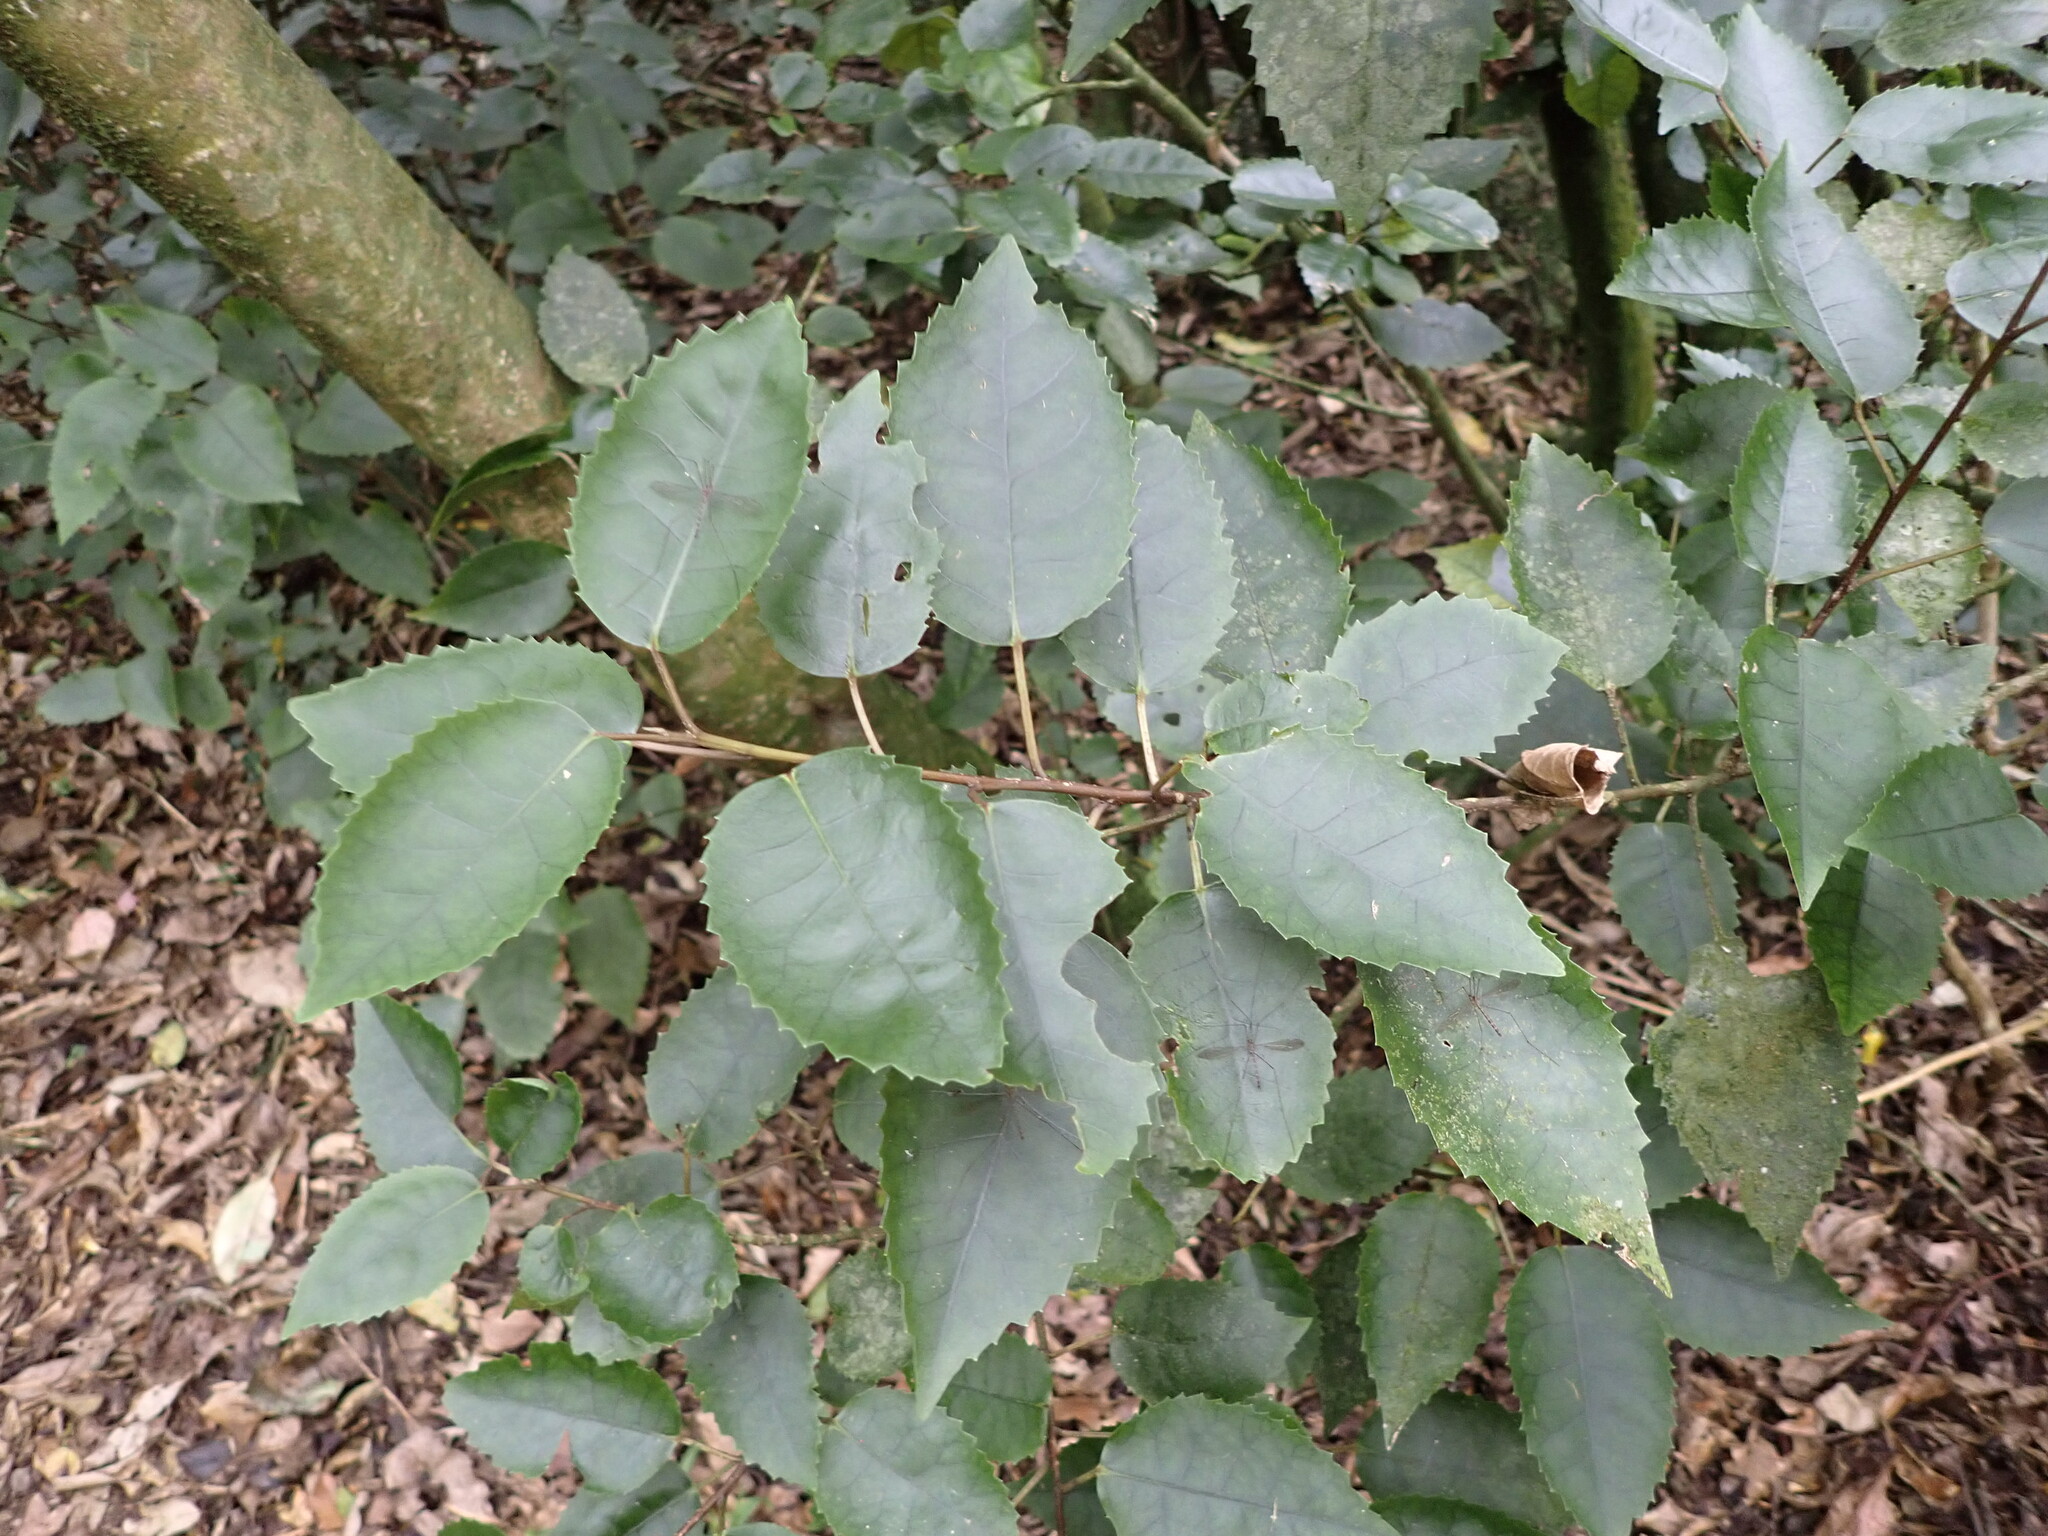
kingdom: Plantae
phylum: Tracheophyta
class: Magnoliopsida
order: Malvales
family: Malvaceae
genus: Hoheria
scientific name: Hoheria populnea
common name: Lacebark
